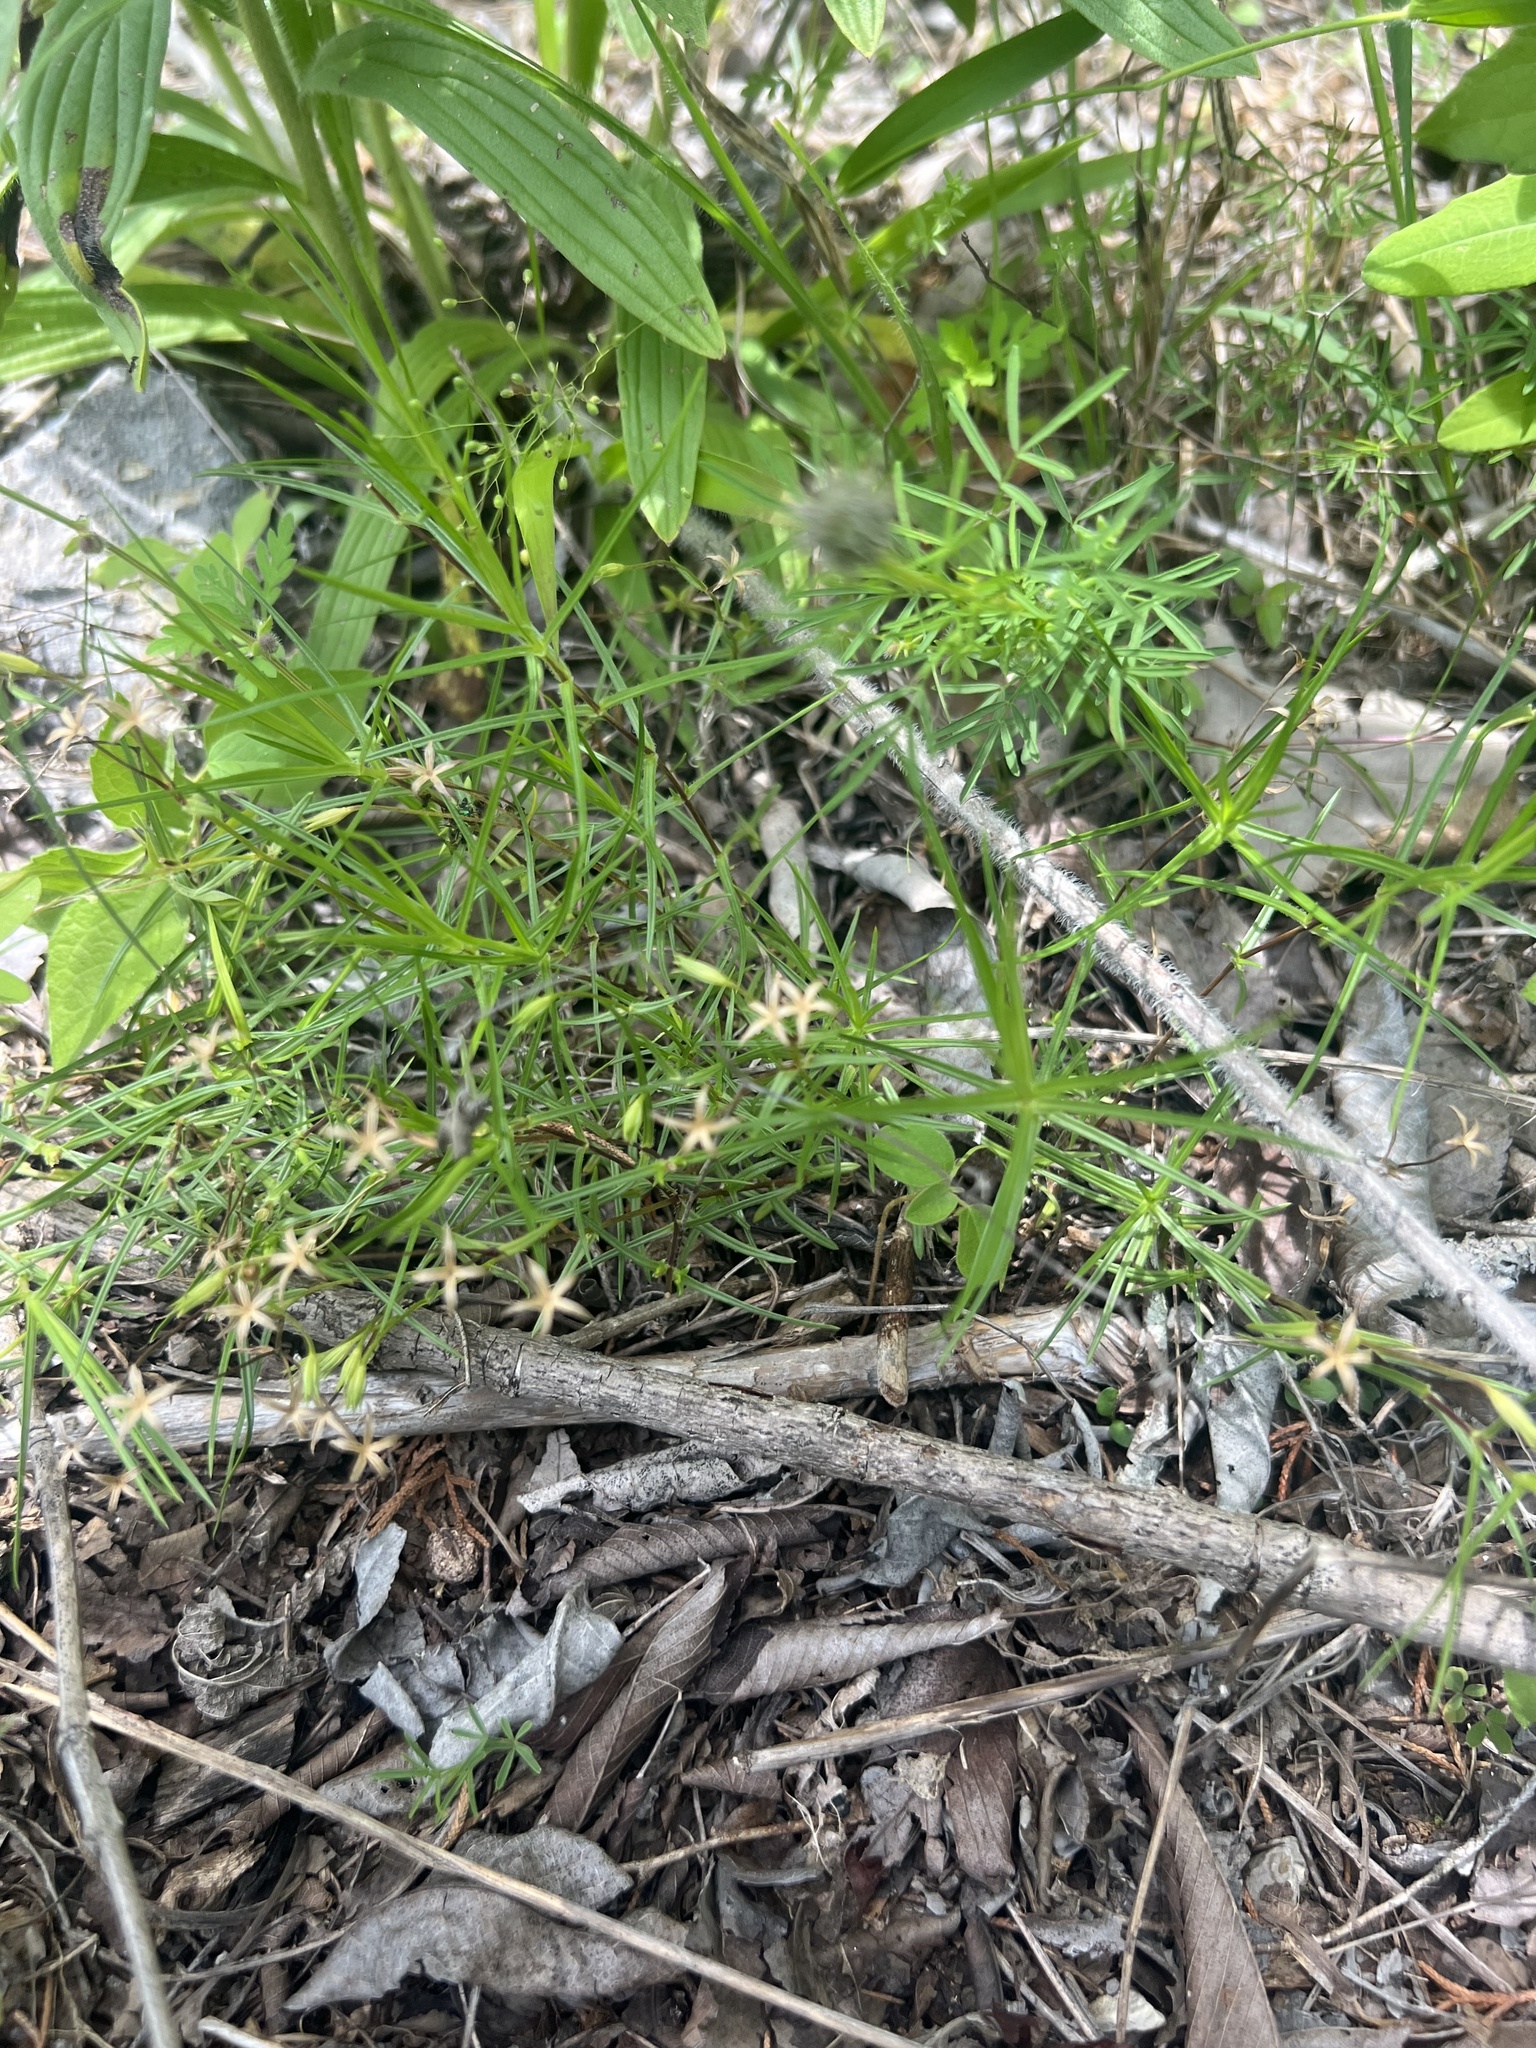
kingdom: Plantae
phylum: Tracheophyta
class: Magnoliopsida
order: Ericales
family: Polemoniaceae
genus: Phlox
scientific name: Phlox bifida
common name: Sand phlox
